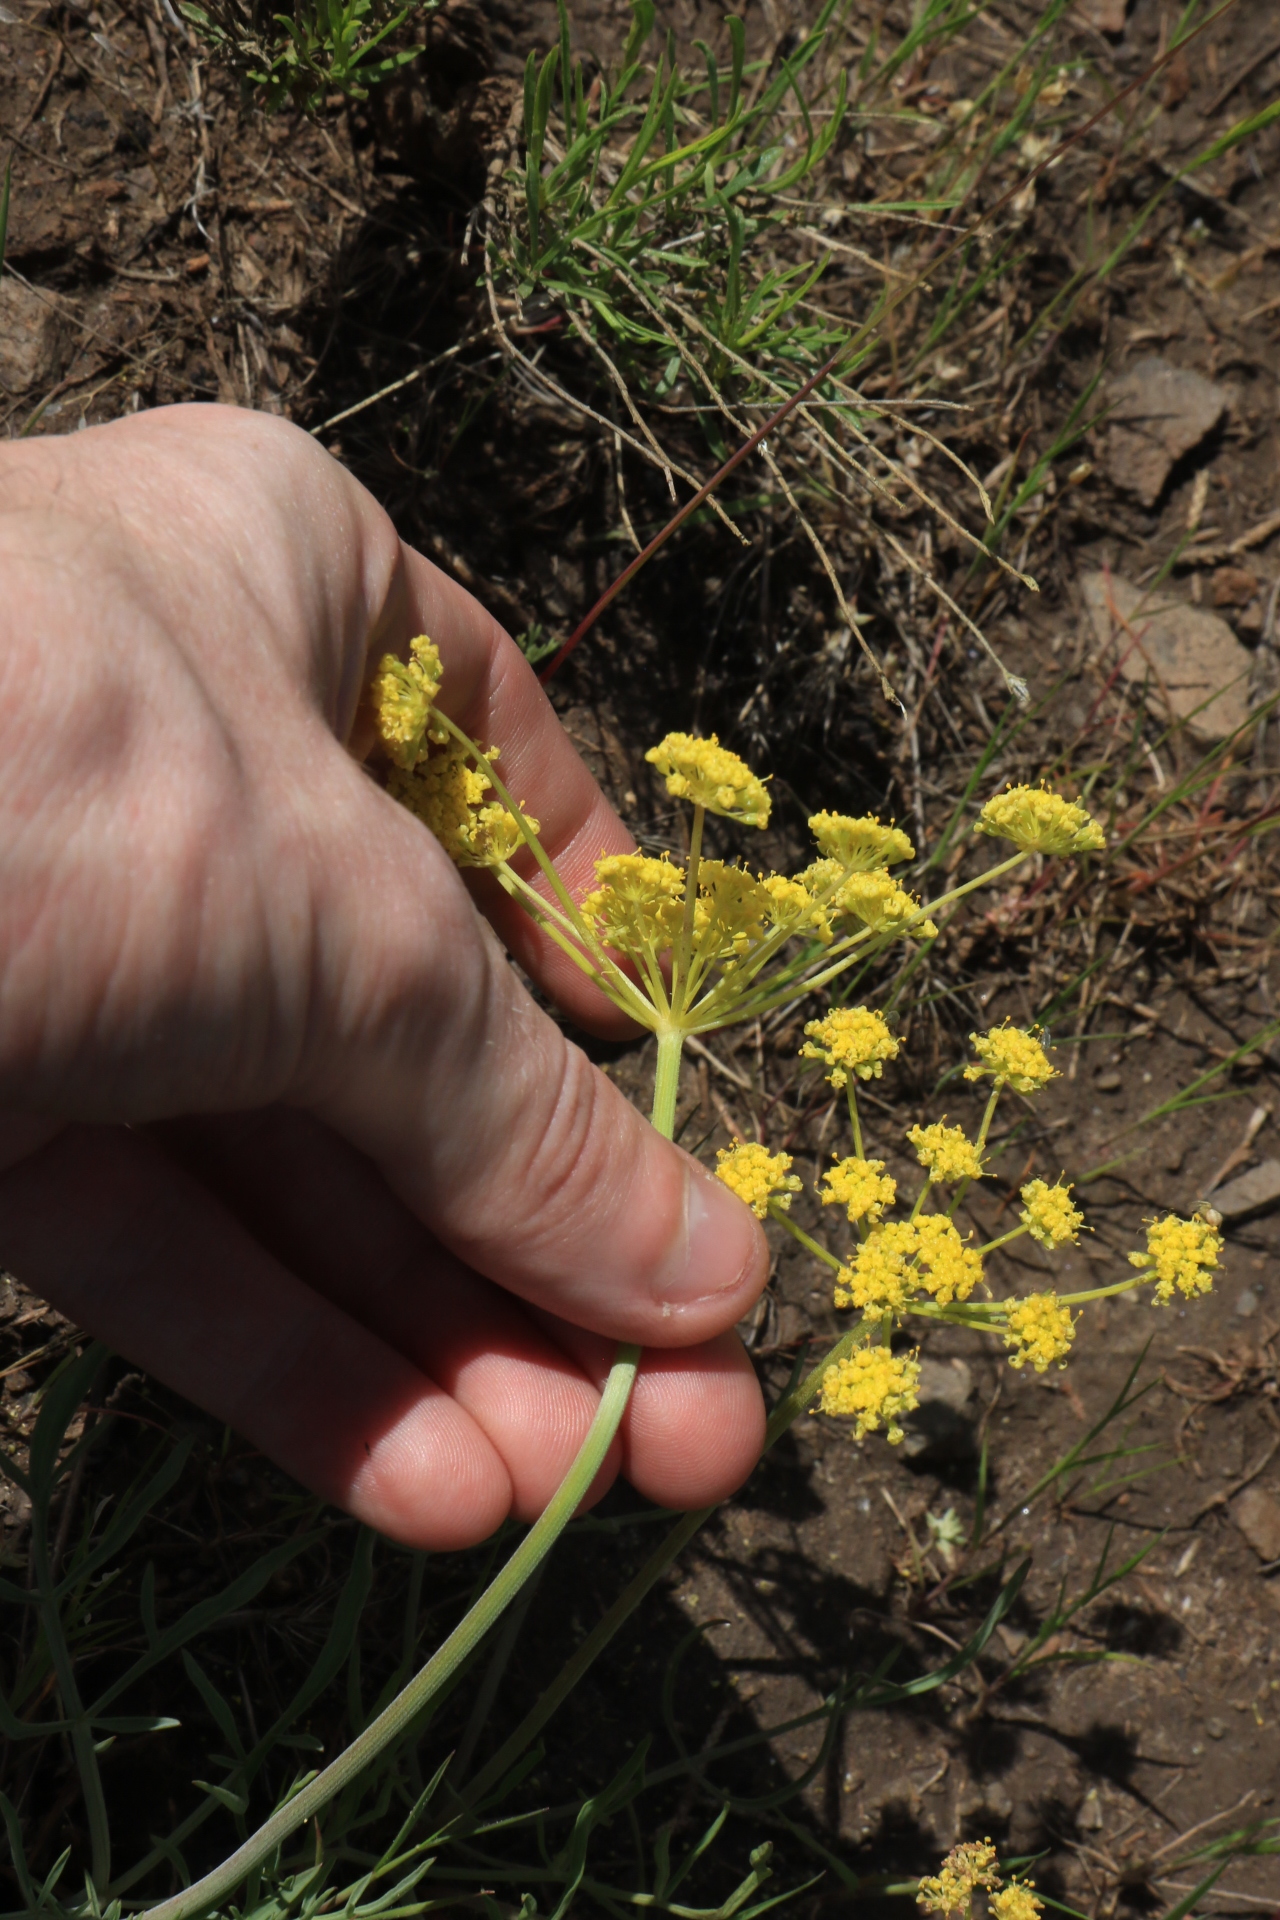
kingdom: Plantae
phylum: Tracheophyta
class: Magnoliopsida
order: Apiales
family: Apiaceae
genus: Lomatium
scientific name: Lomatium triternatum
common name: Ternate lomatium
